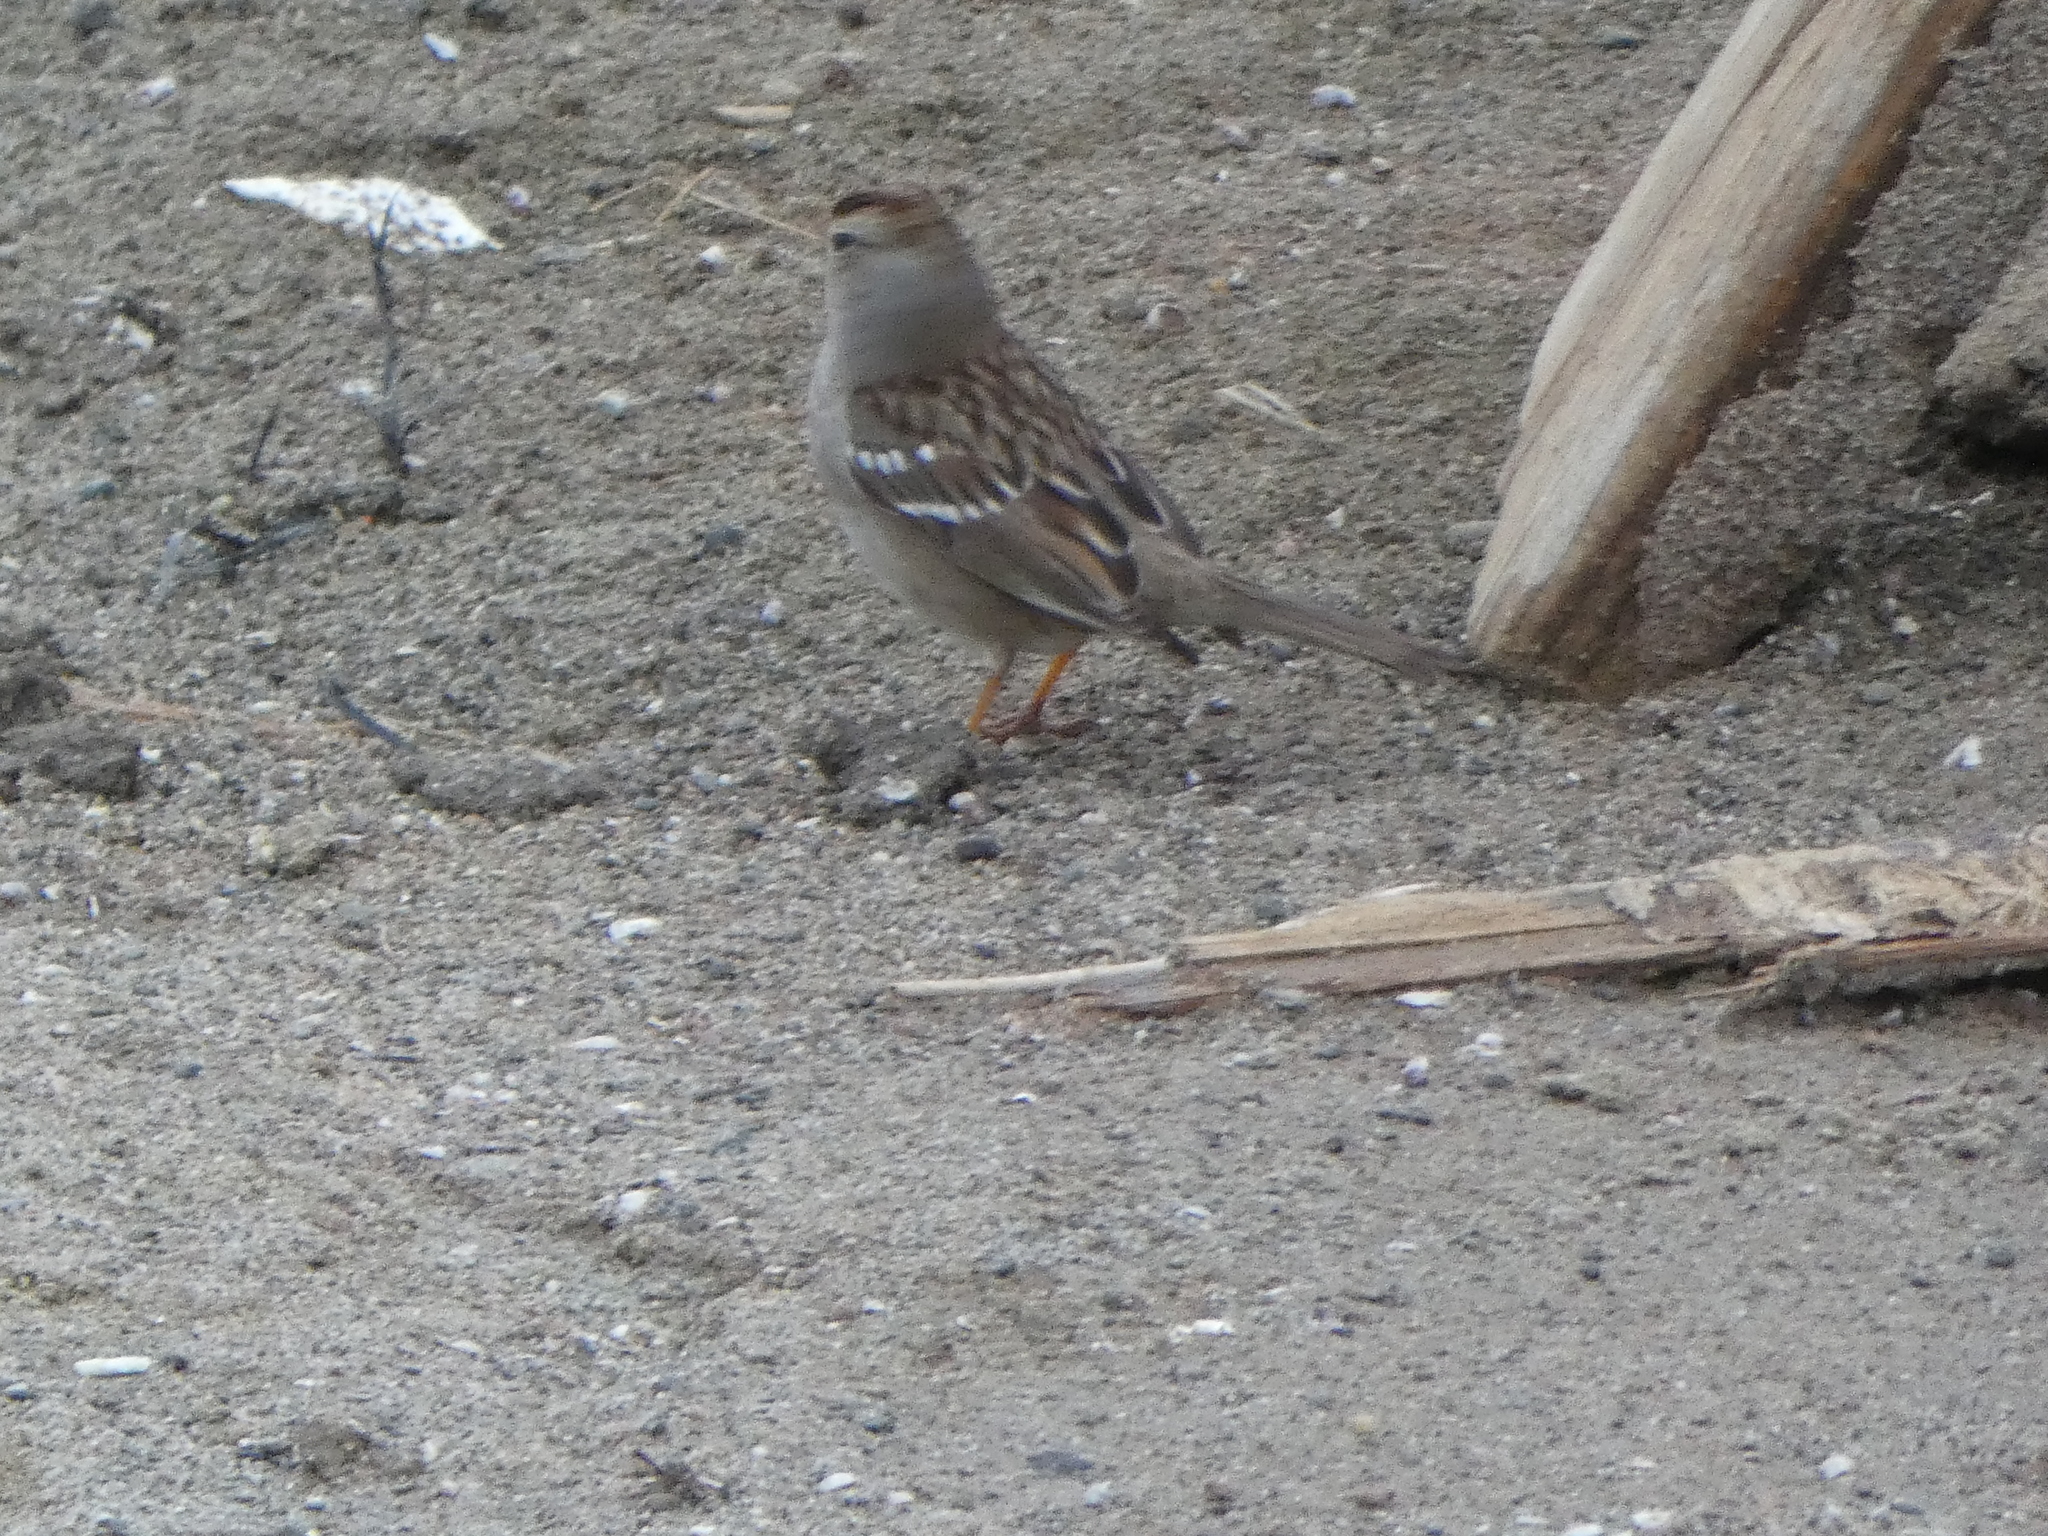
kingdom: Animalia
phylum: Chordata
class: Aves
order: Passeriformes
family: Passerellidae
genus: Zonotrichia
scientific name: Zonotrichia leucophrys
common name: White-crowned sparrow
